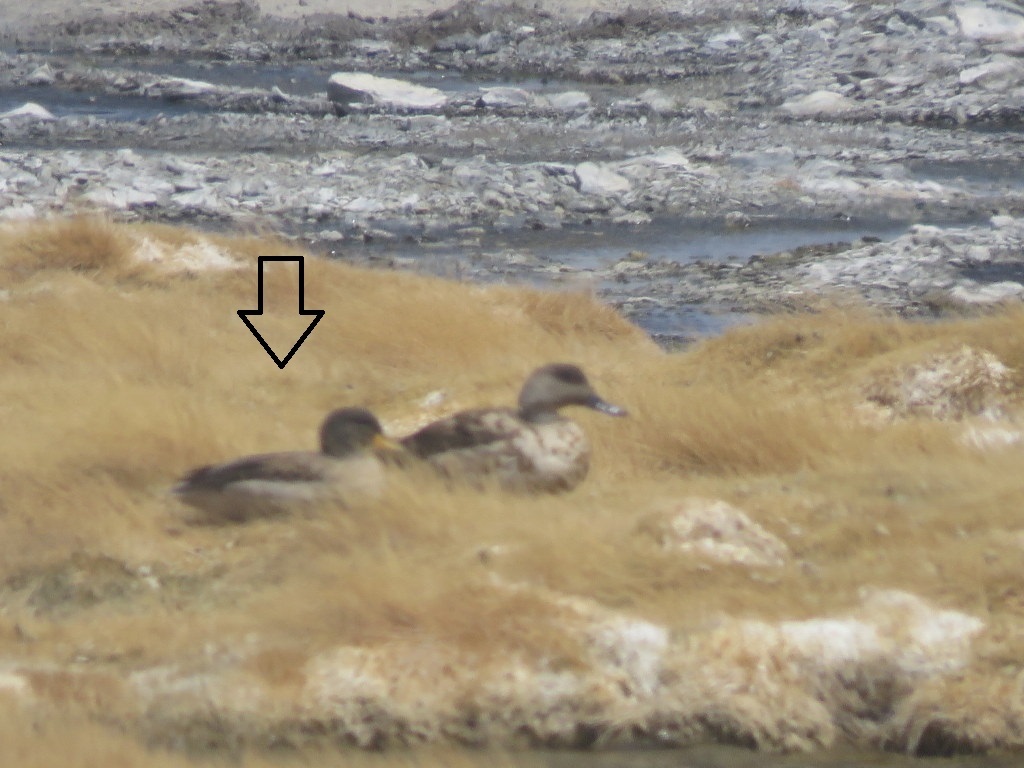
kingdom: Animalia
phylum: Chordata
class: Aves
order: Anseriformes
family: Anatidae
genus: Anas
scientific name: Anas flavirostris
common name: Yellow-billed teal
